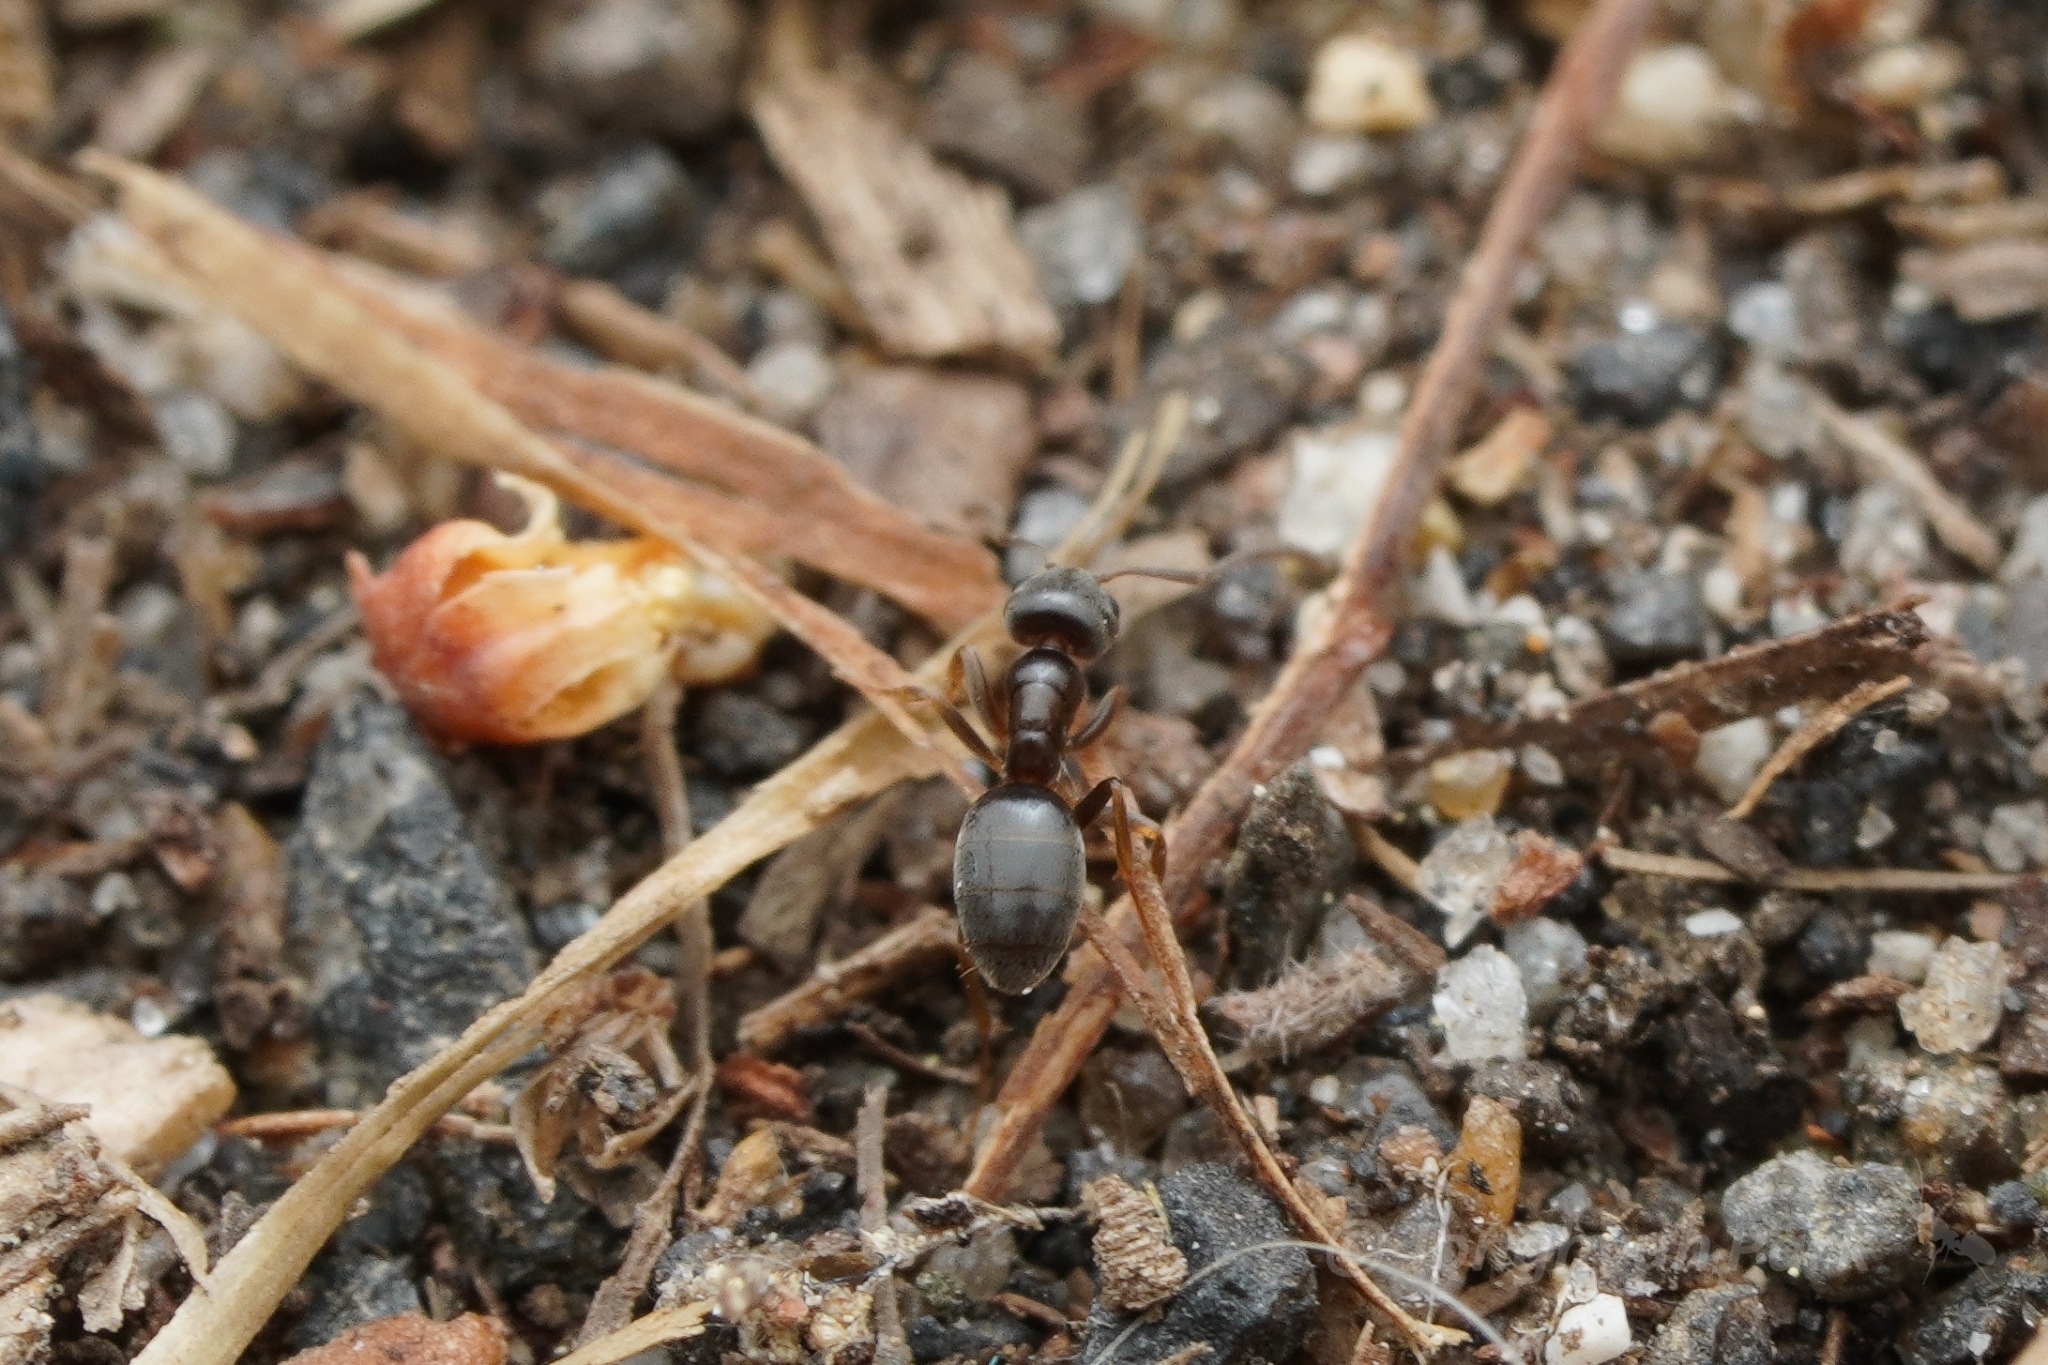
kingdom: Animalia
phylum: Arthropoda
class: Insecta
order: Hymenoptera
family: Formicidae
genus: Tapinoma
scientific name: Tapinoma sessile
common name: Odorous house ant
